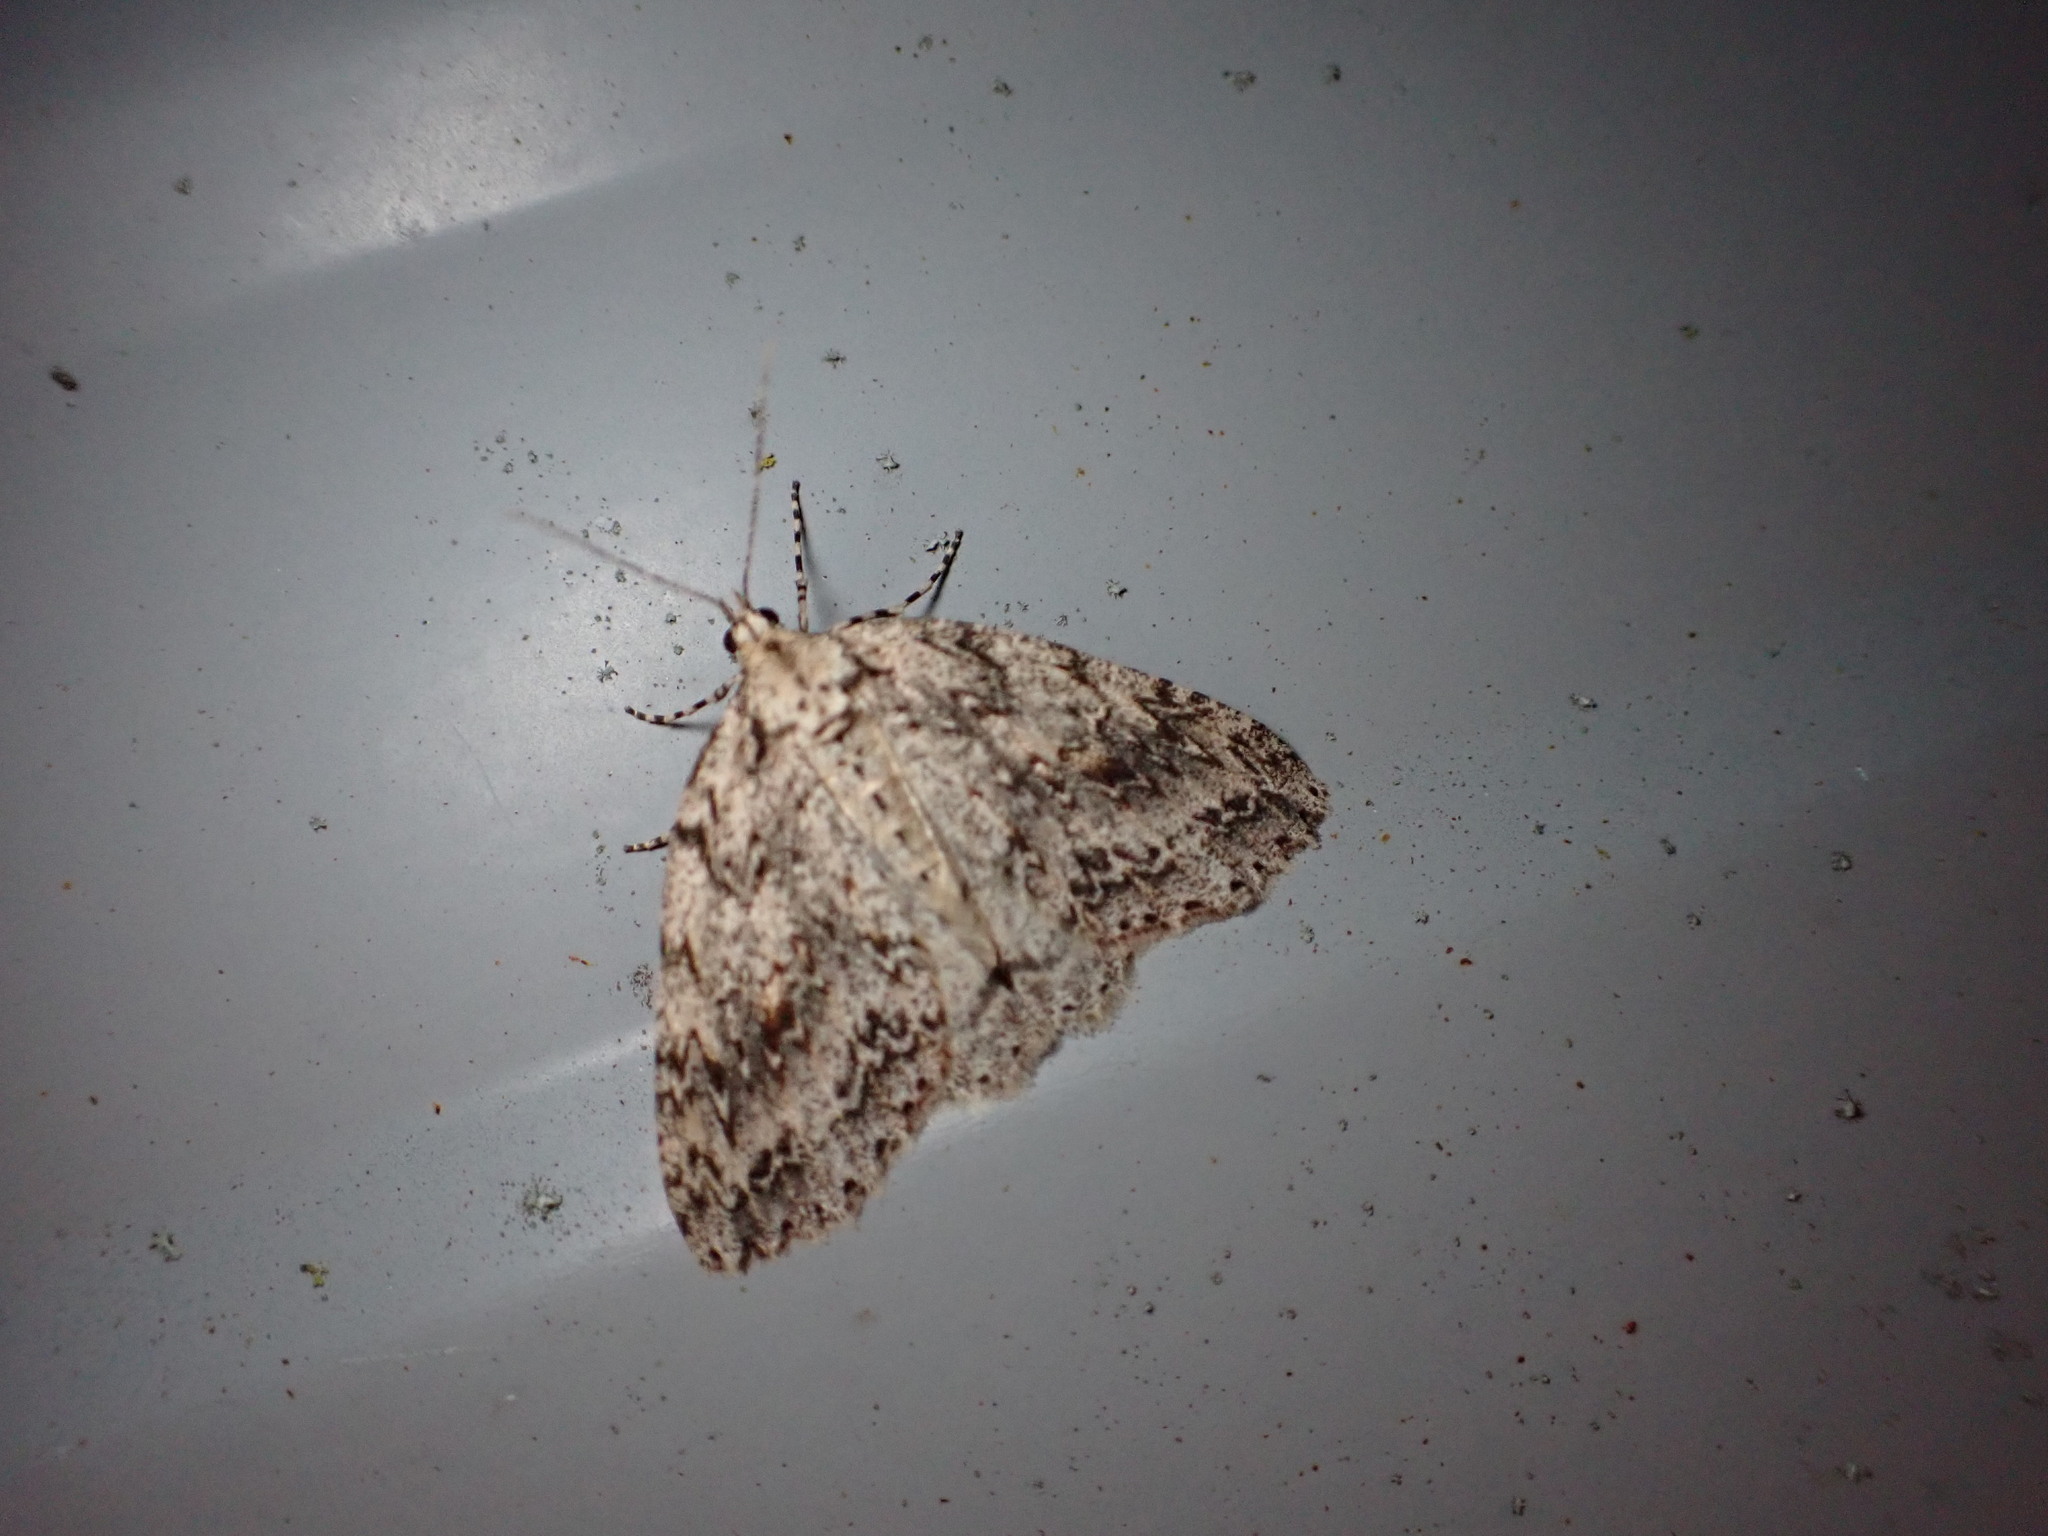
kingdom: Animalia
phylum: Arthropoda
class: Insecta
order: Lepidoptera
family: Geometridae
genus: Pseudocoremia
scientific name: Pseudocoremia rudisata
